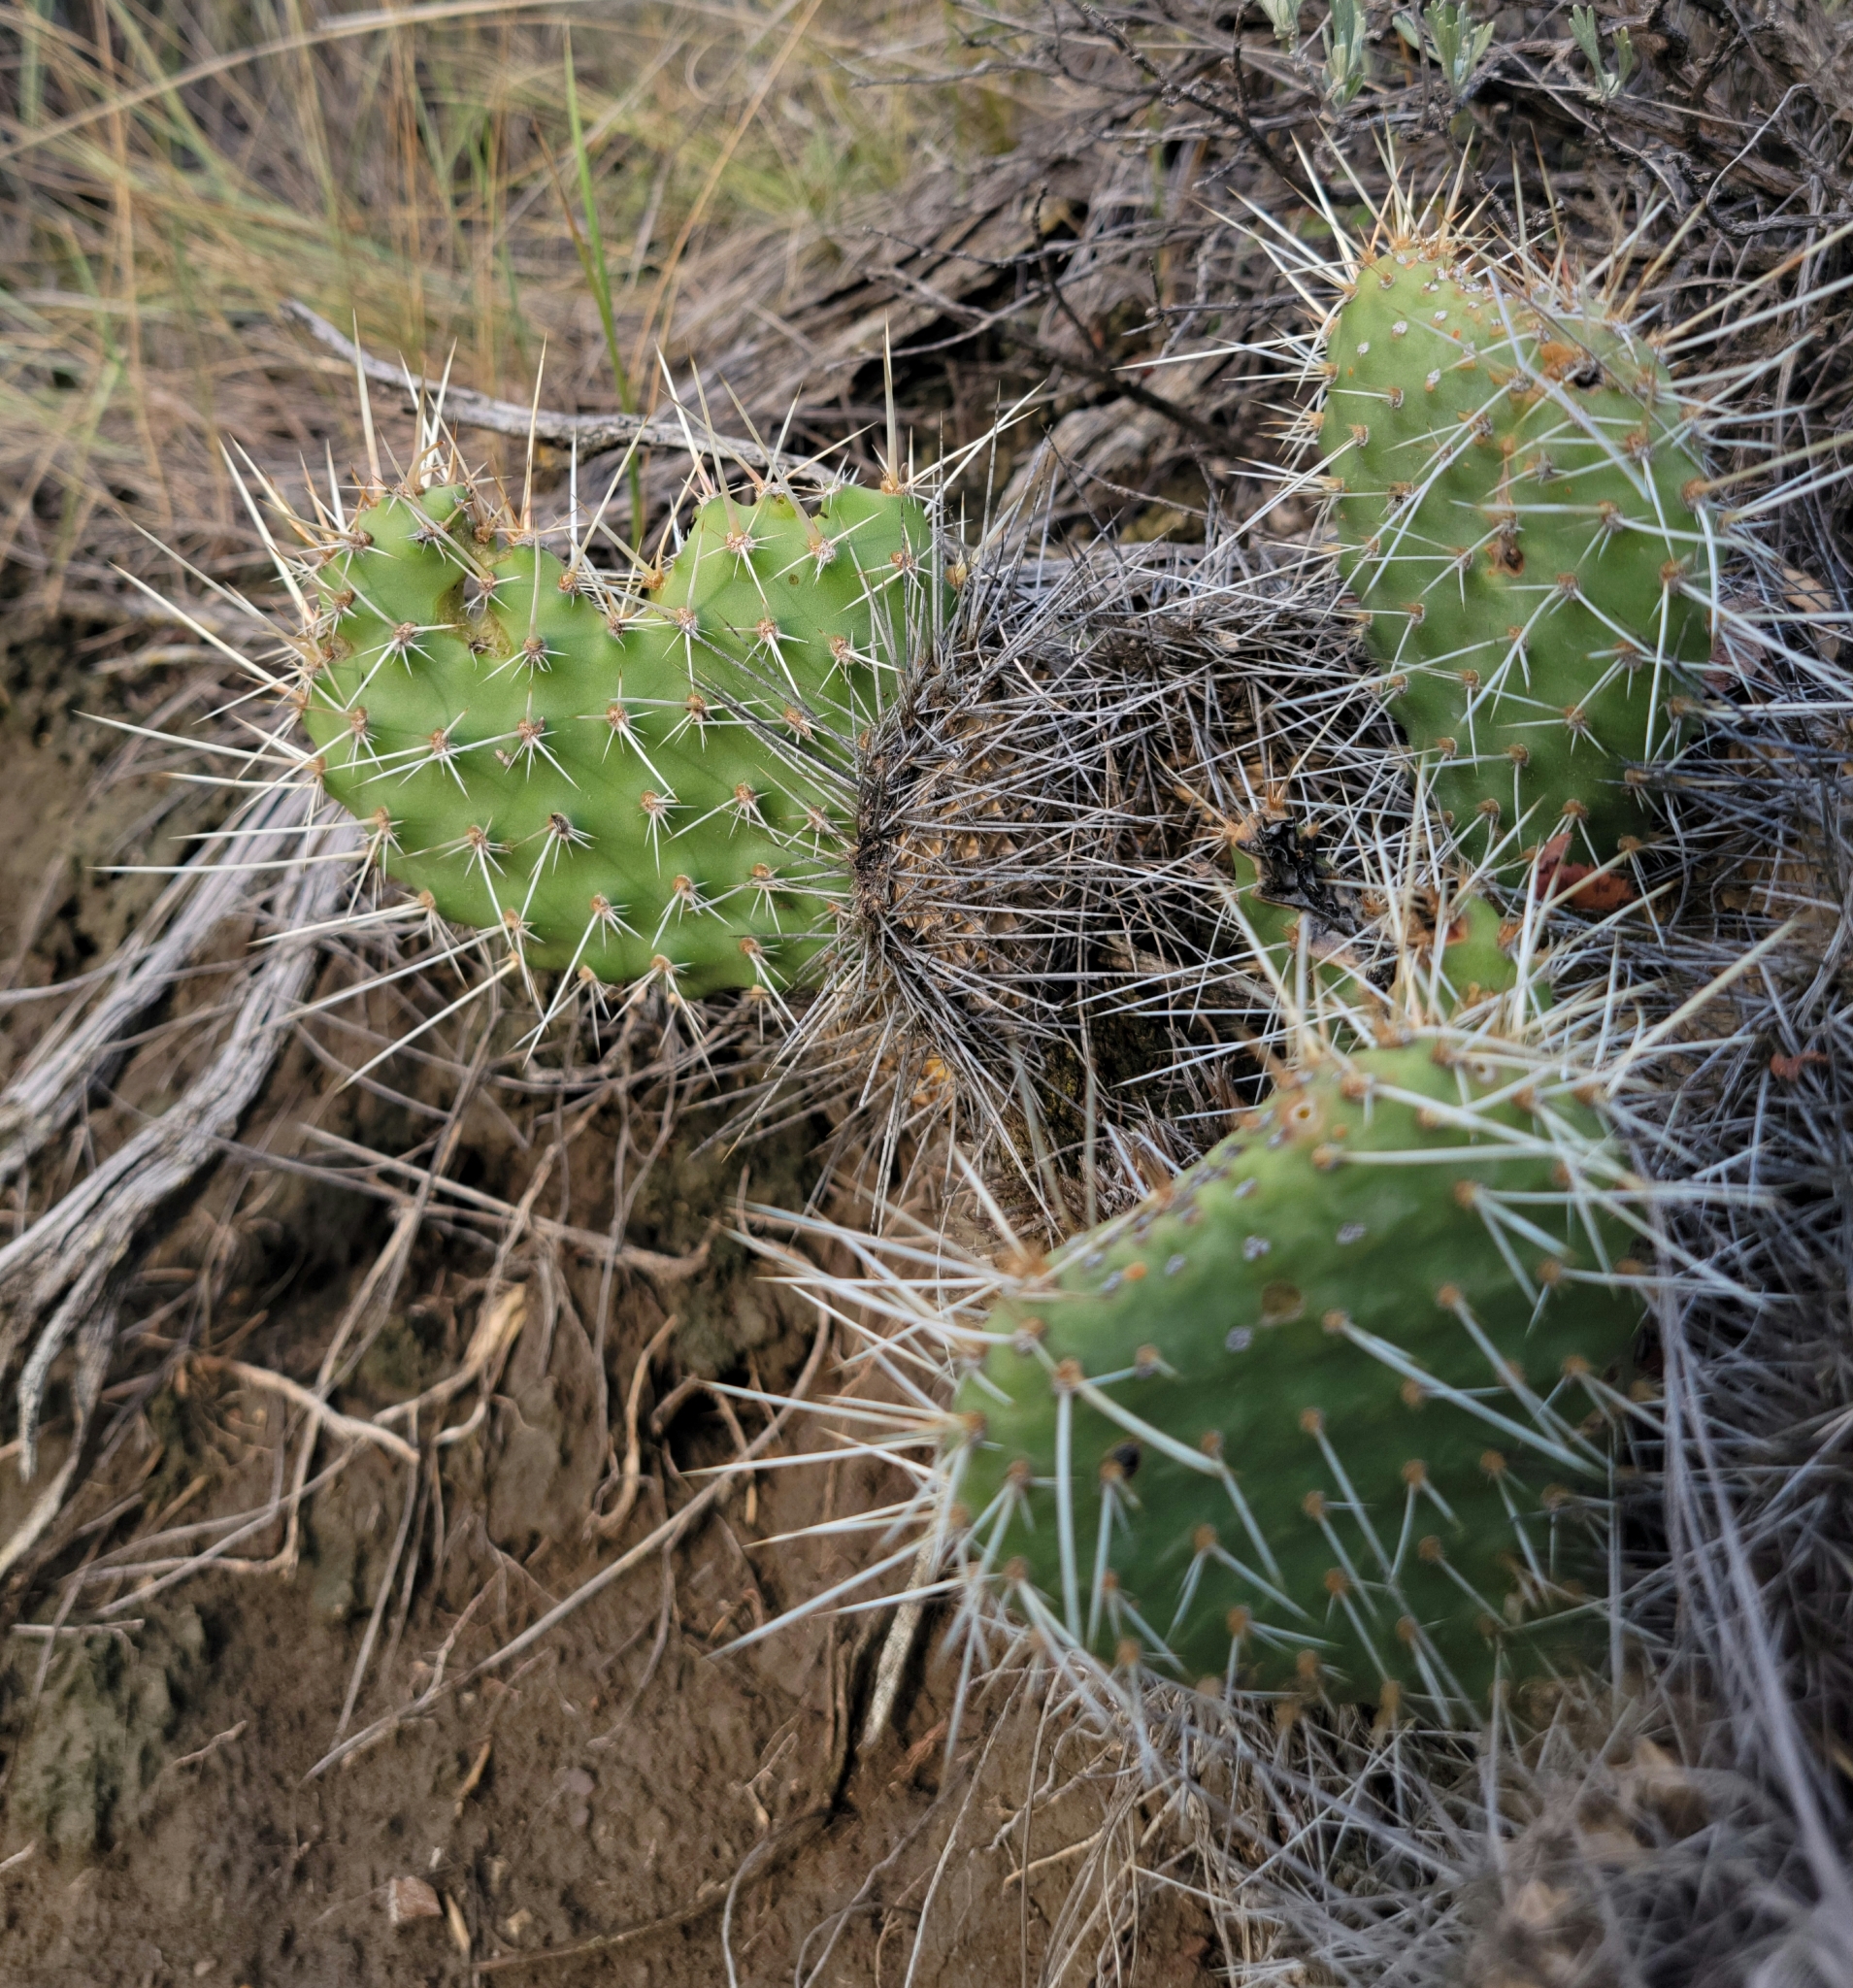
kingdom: Plantae
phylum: Tracheophyta
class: Magnoliopsida
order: Caryophyllales
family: Cactaceae
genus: Opuntia
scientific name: Opuntia polyacantha
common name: Plains prickly-pear
